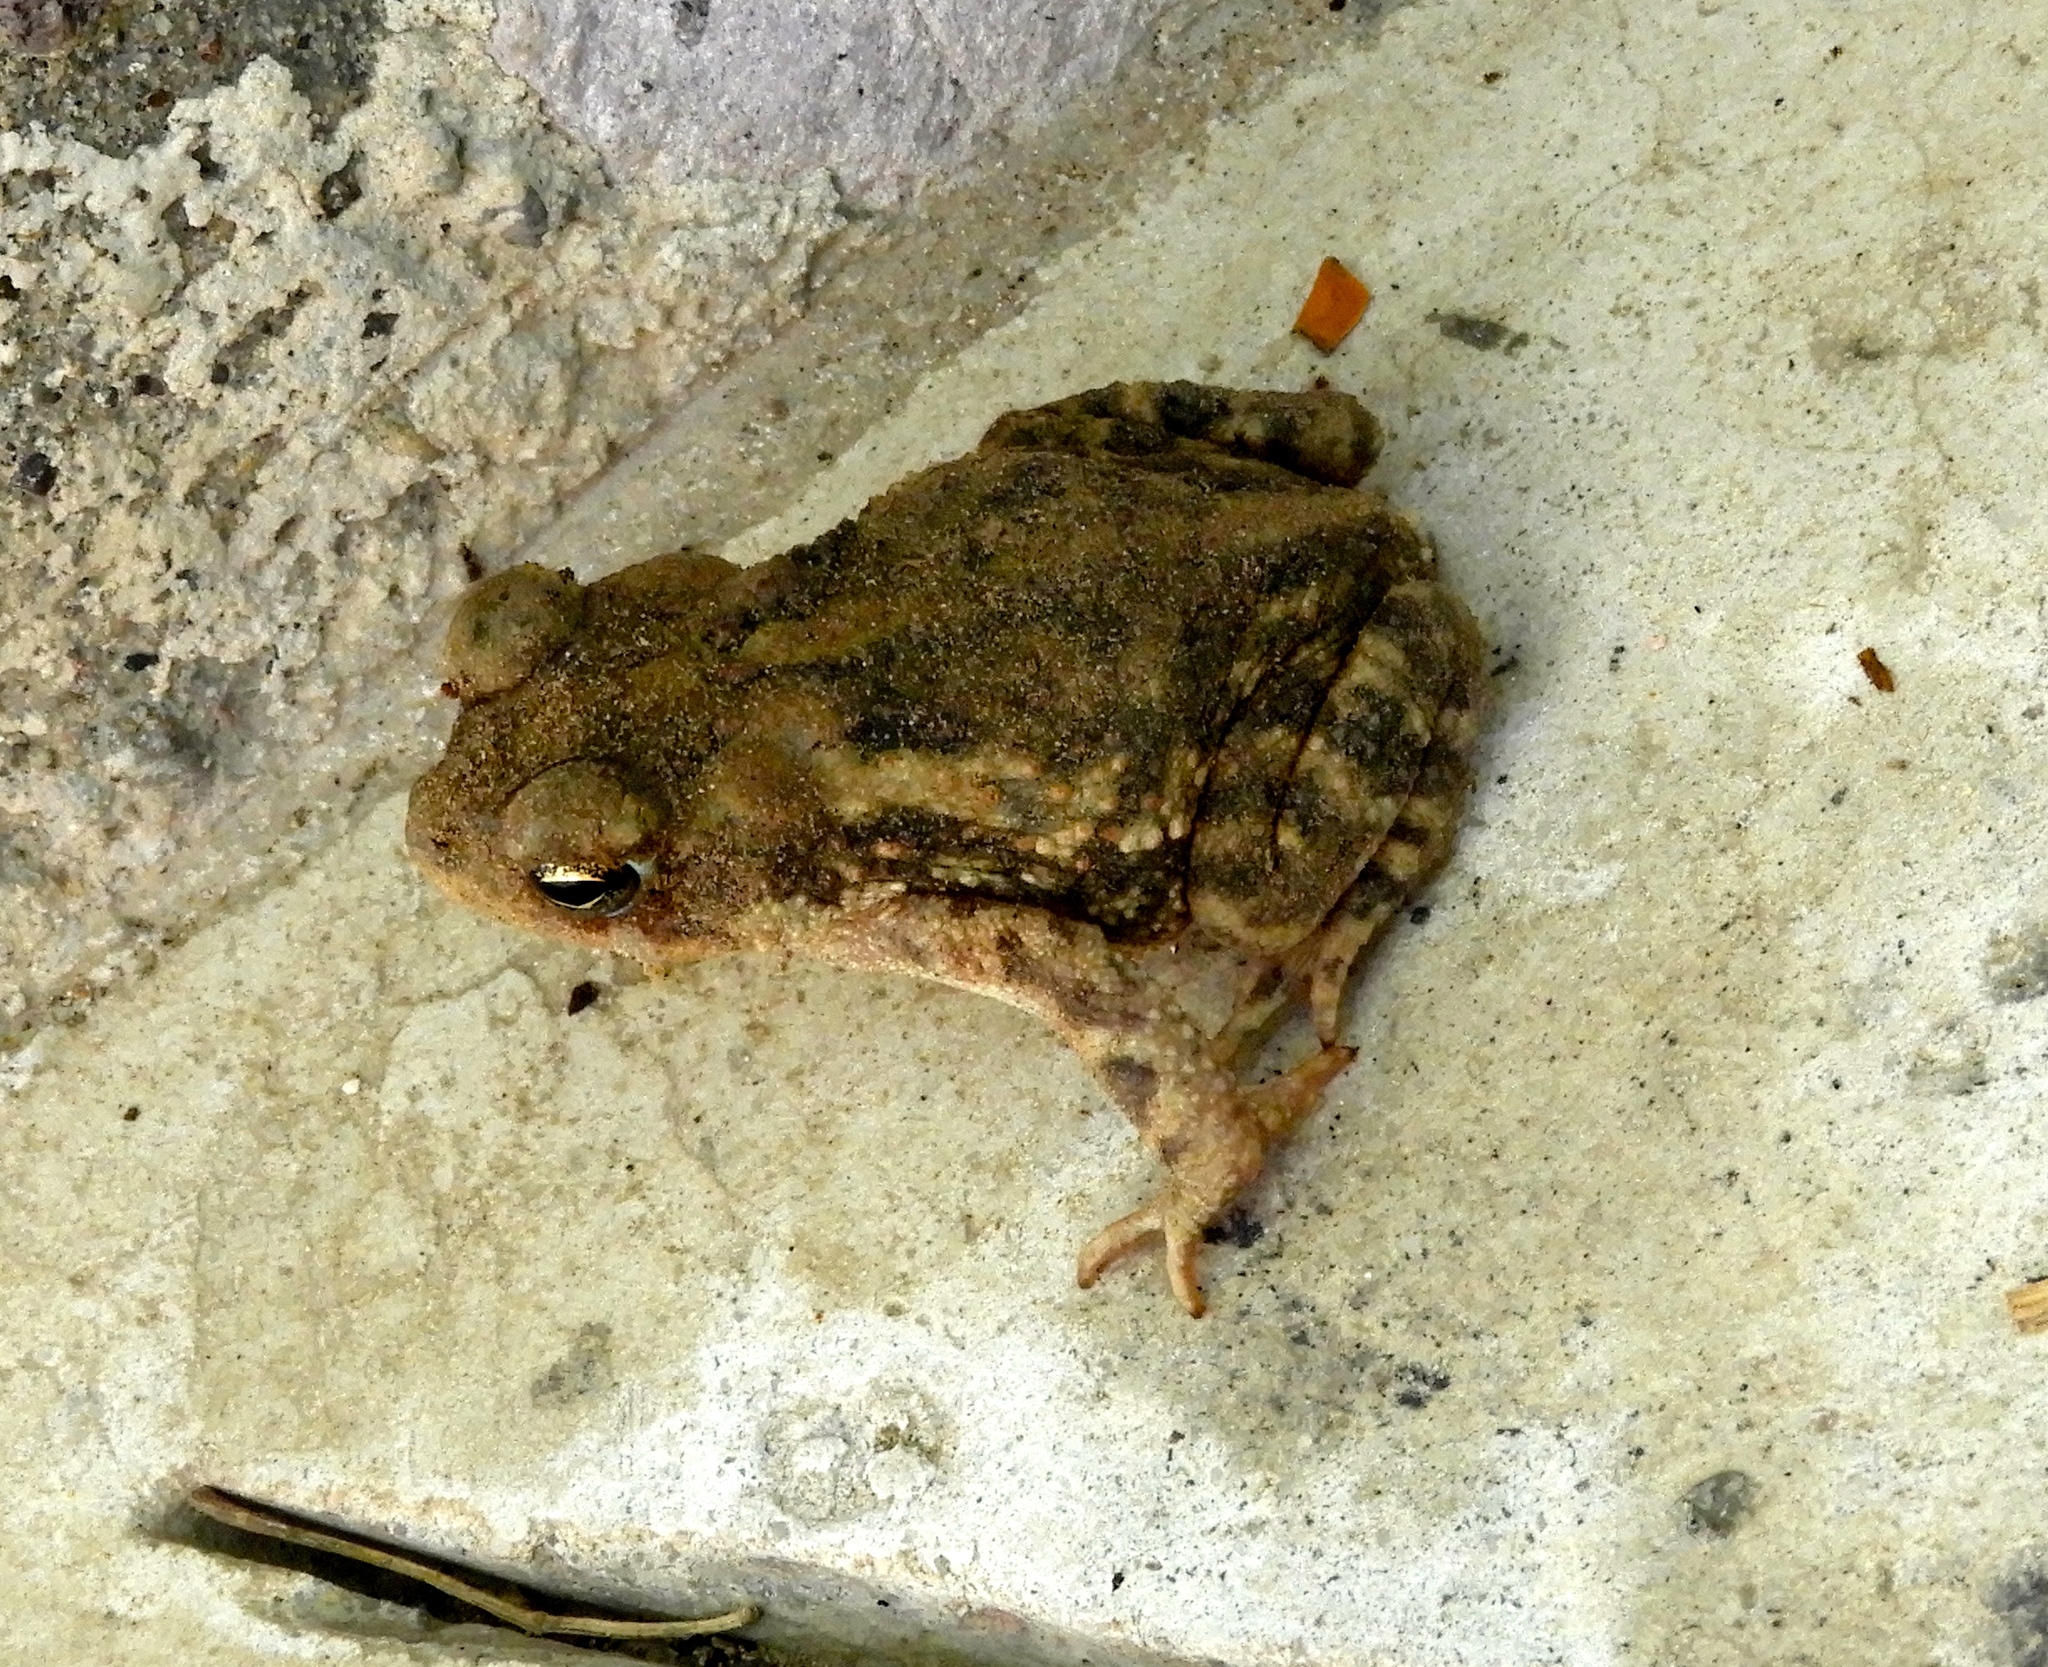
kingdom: Animalia
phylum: Chordata
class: Amphibia
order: Anura
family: Bufonidae
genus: Incilius
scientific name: Incilius marmoreus
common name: Marbled toad
